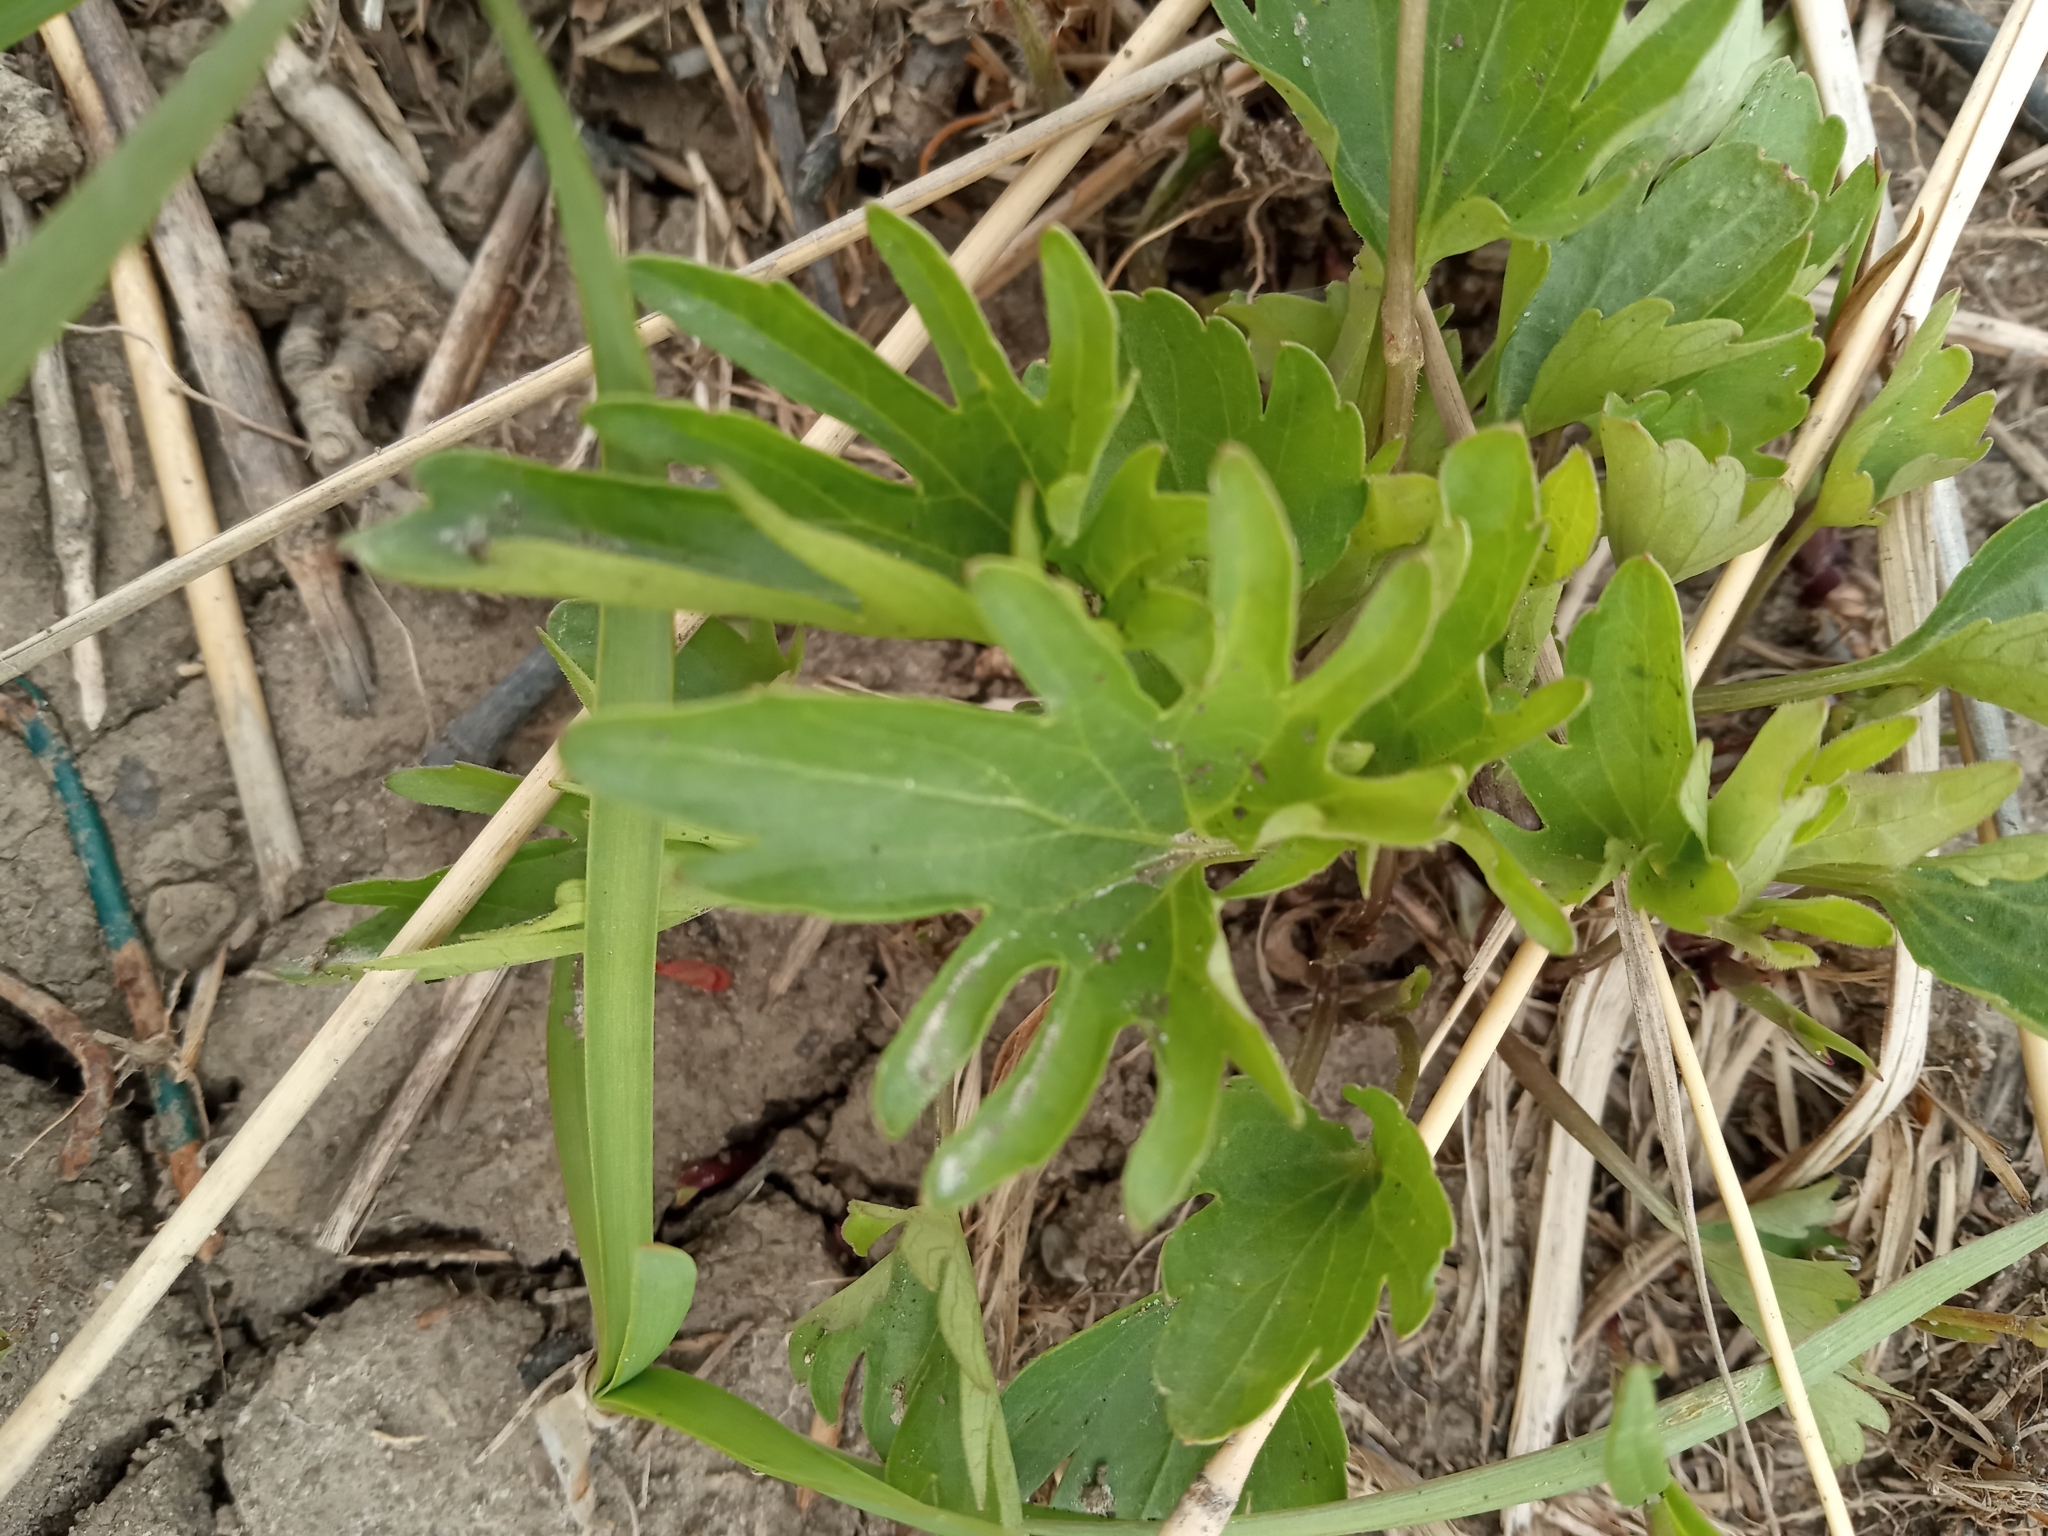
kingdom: Plantae
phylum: Tracheophyta
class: Magnoliopsida
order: Malpighiales
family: Violaceae
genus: Viola
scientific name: Viola pedatifida
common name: Prairie violet
